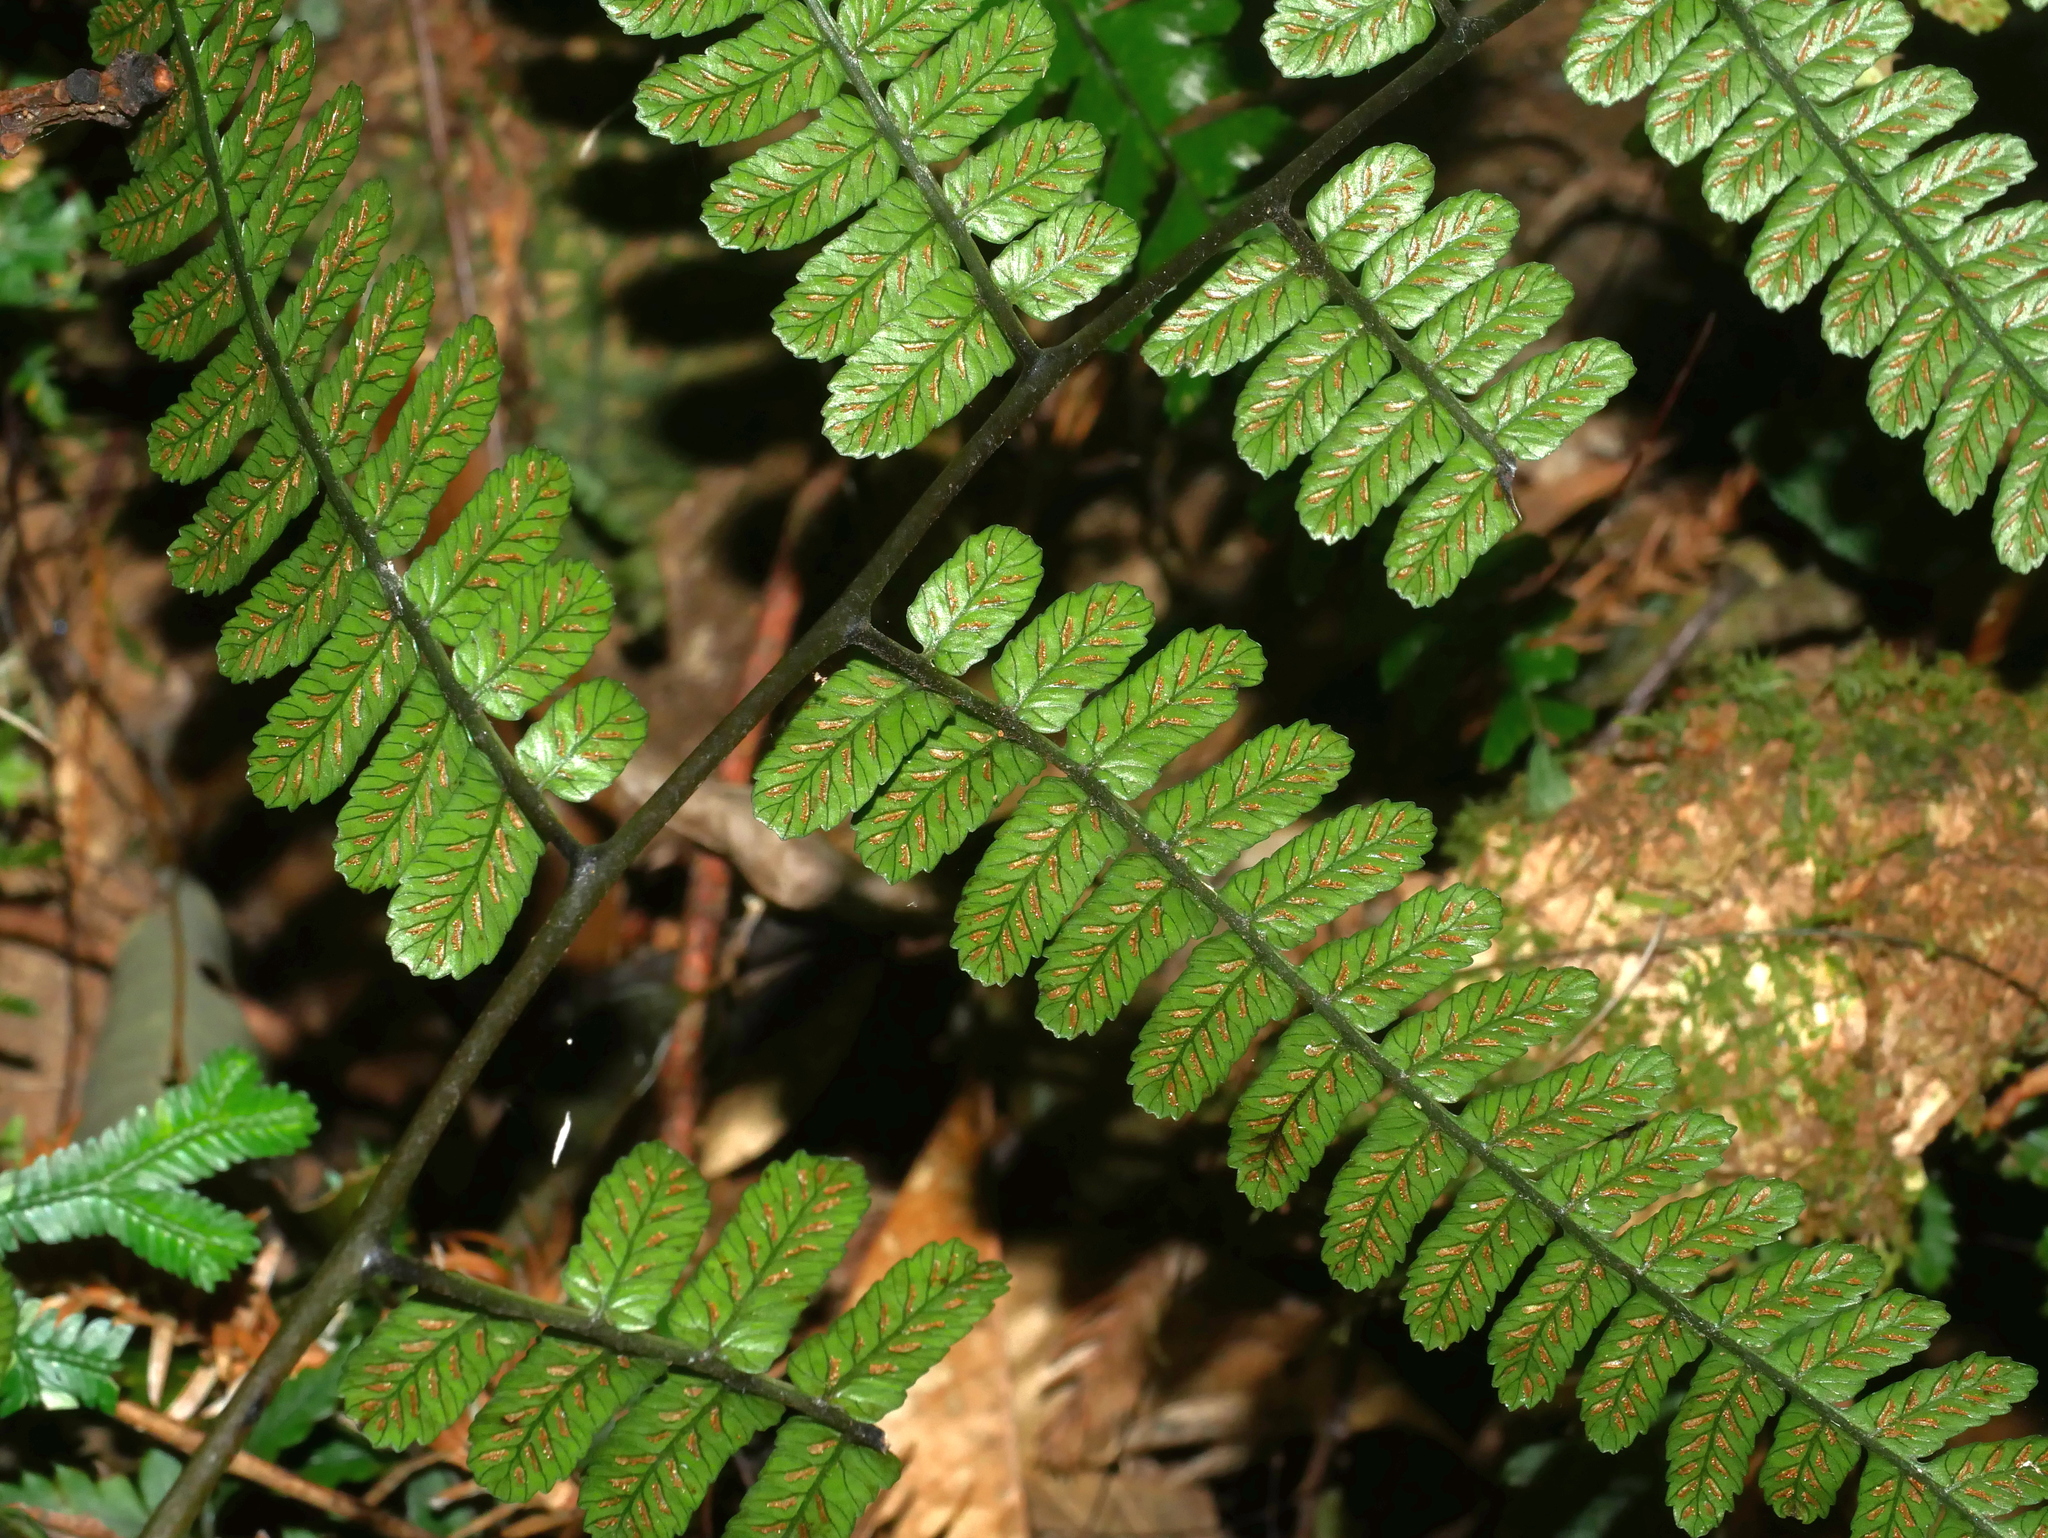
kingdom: Plantae
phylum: Tracheophyta
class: Polypodiopsida
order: Polypodiales
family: Athyriaceae
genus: Diplazium
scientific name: Diplazium petri
